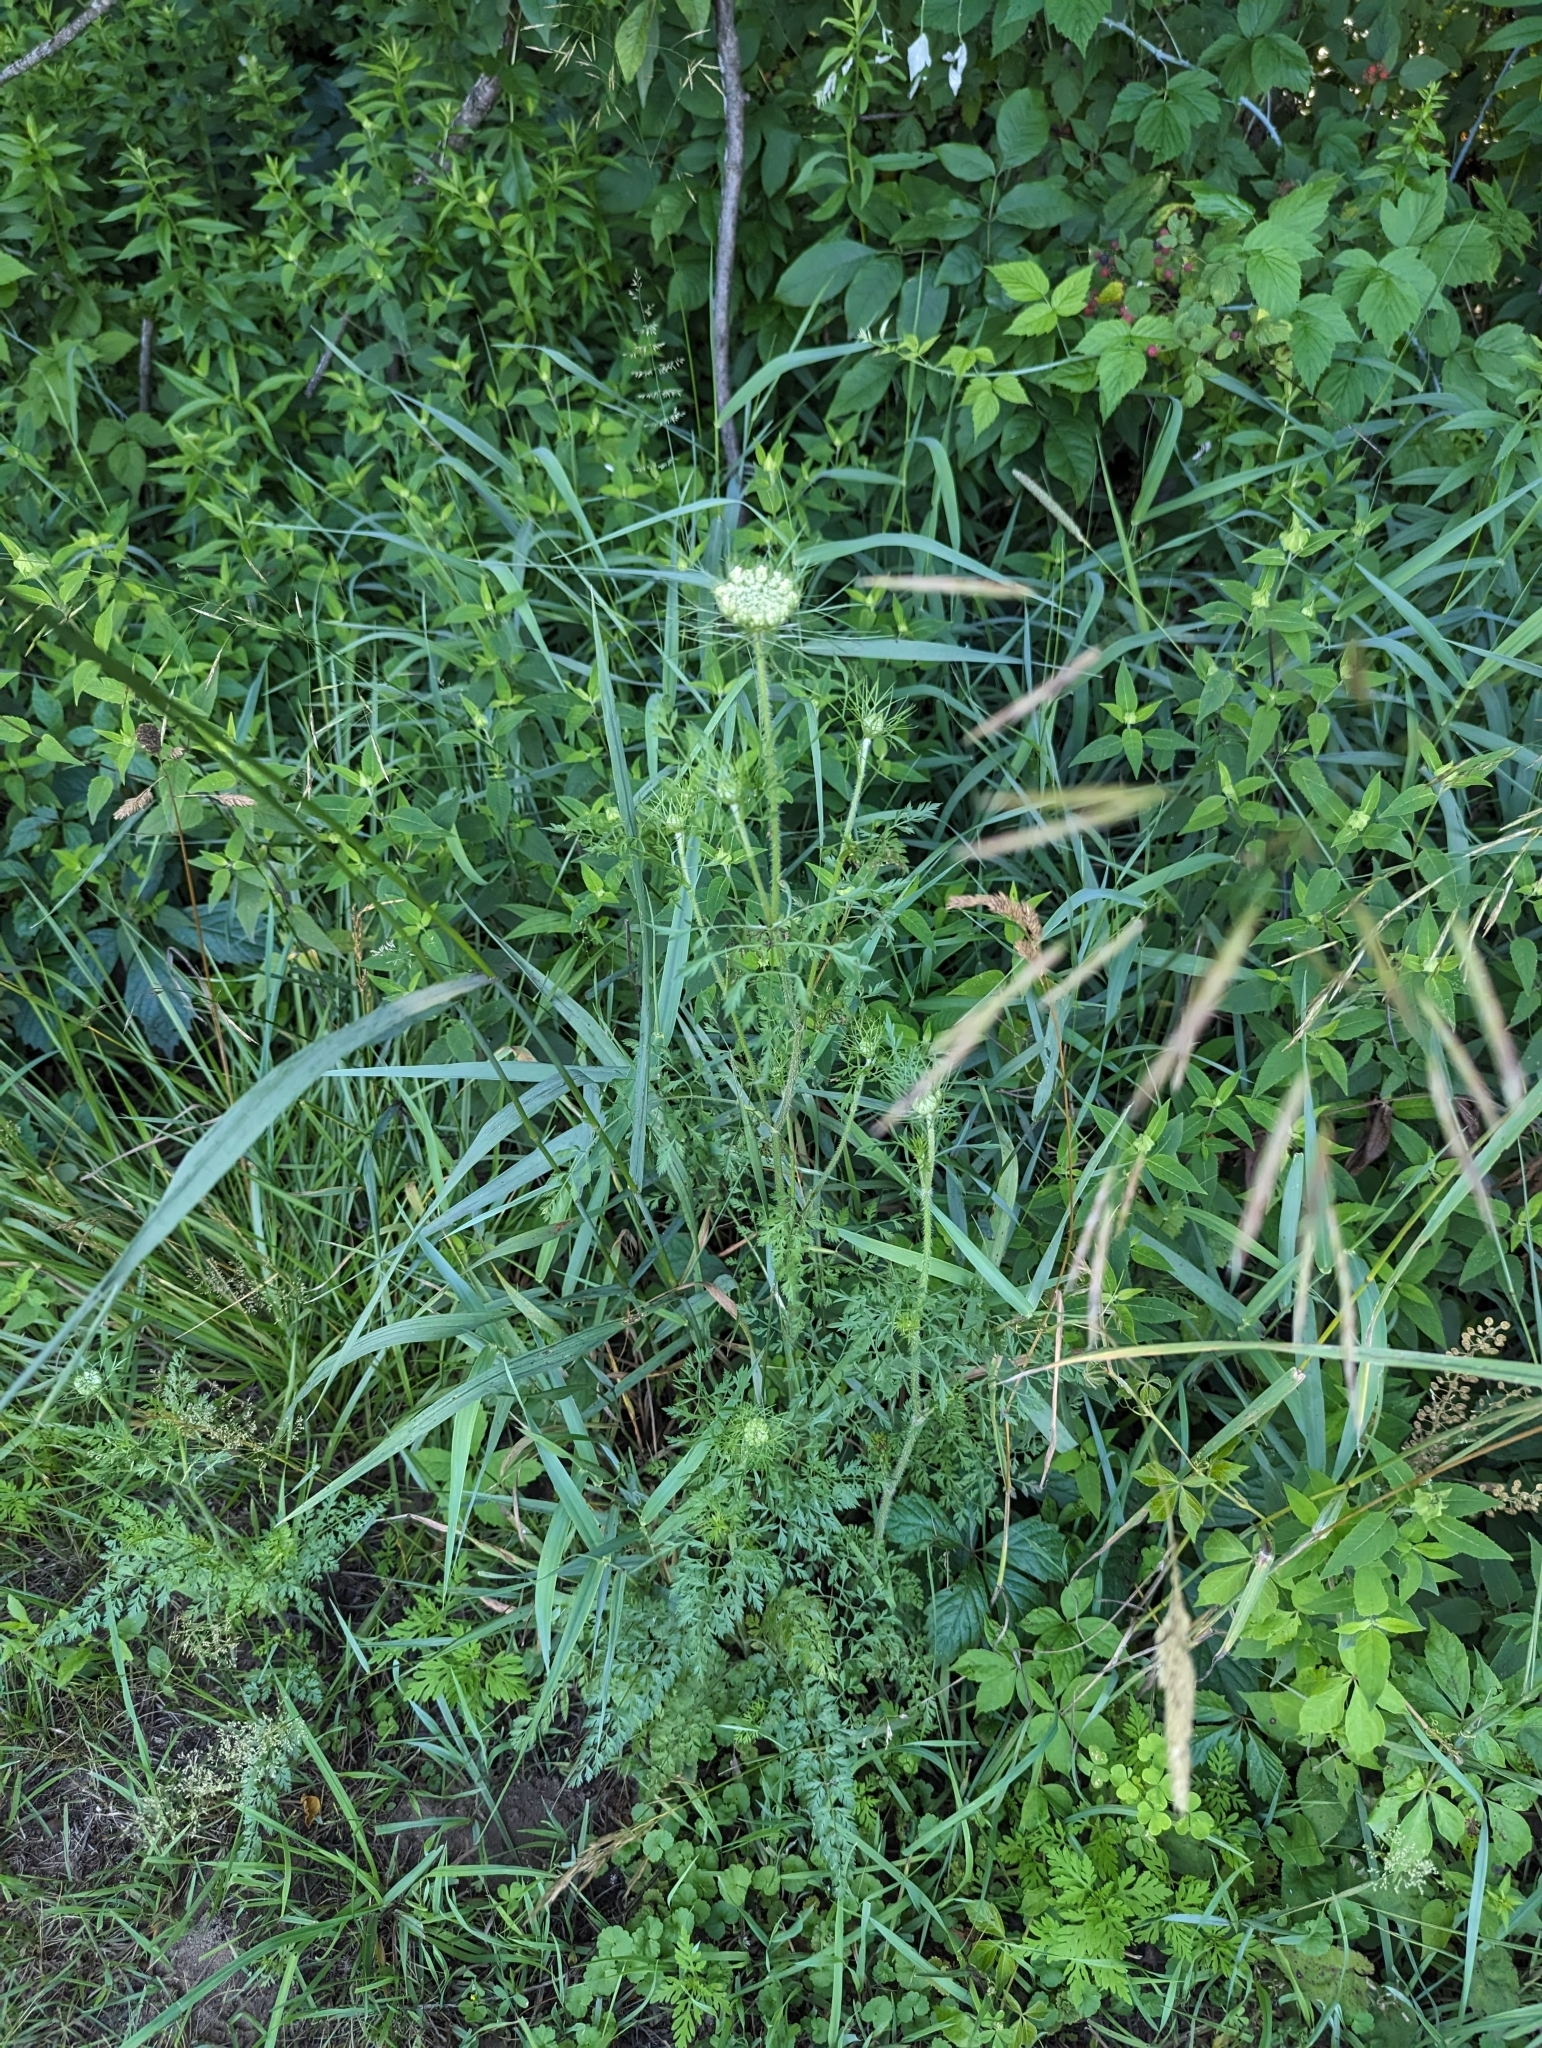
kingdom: Plantae
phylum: Tracheophyta
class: Magnoliopsida
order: Apiales
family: Apiaceae
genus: Daucus
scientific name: Daucus carota
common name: Wild carrot
